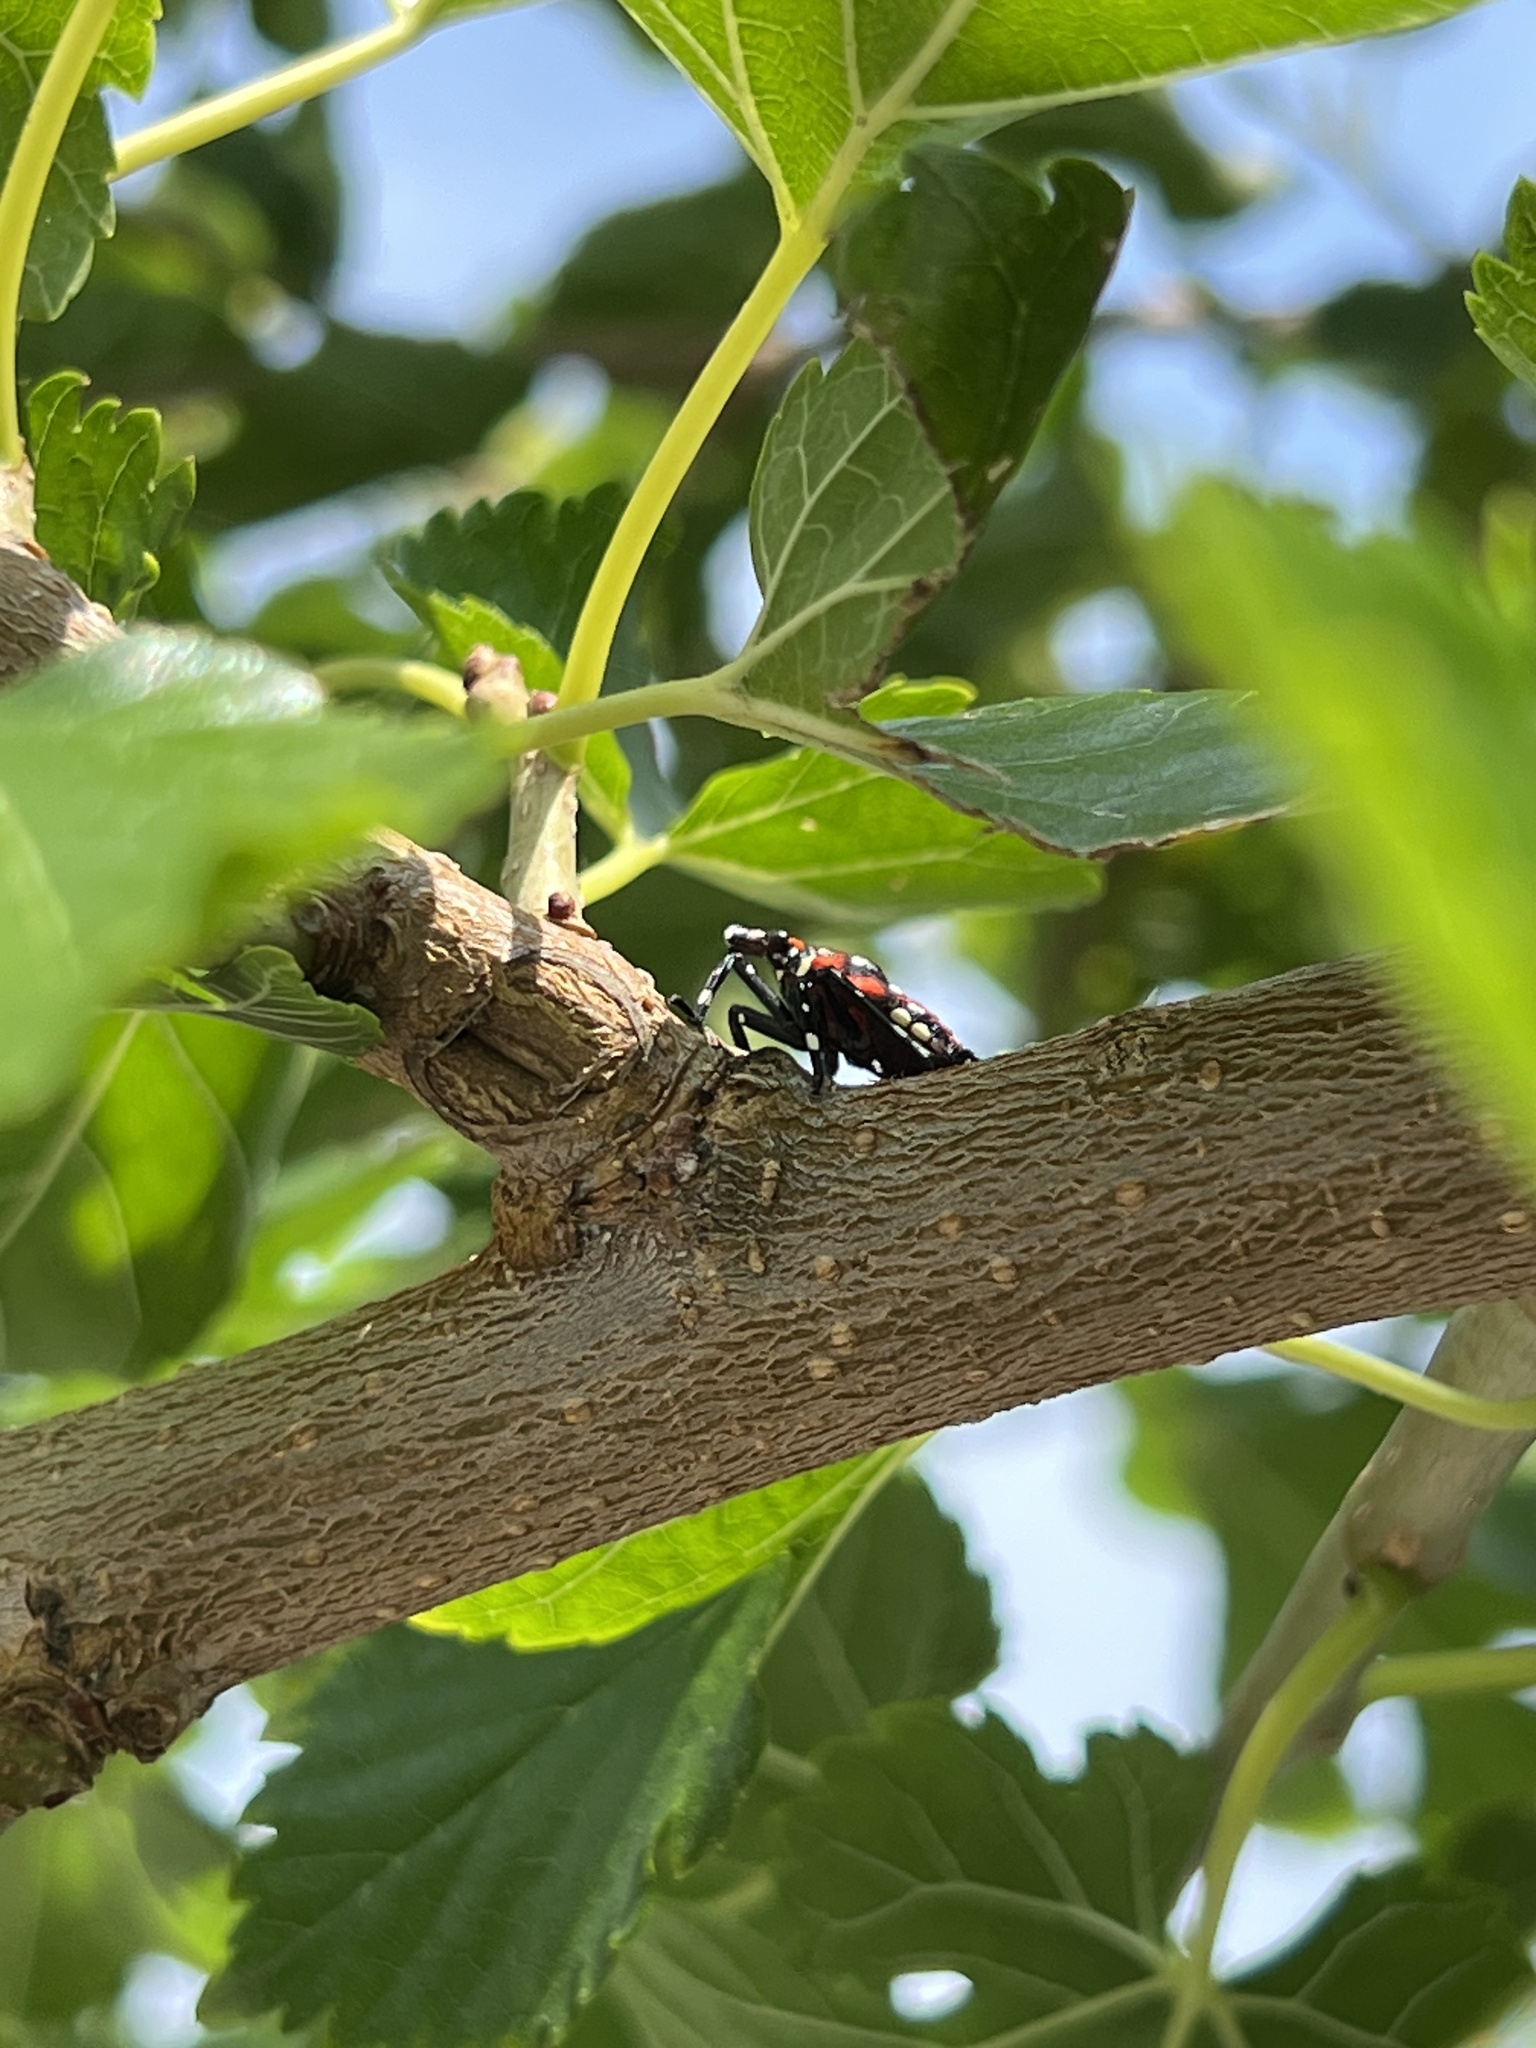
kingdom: Animalia
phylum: Arthropoda
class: Insecta
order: Hemiptera
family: Fulgoridae
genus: Lycorma
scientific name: Lycorma delicatula
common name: Spotted lanternfly
